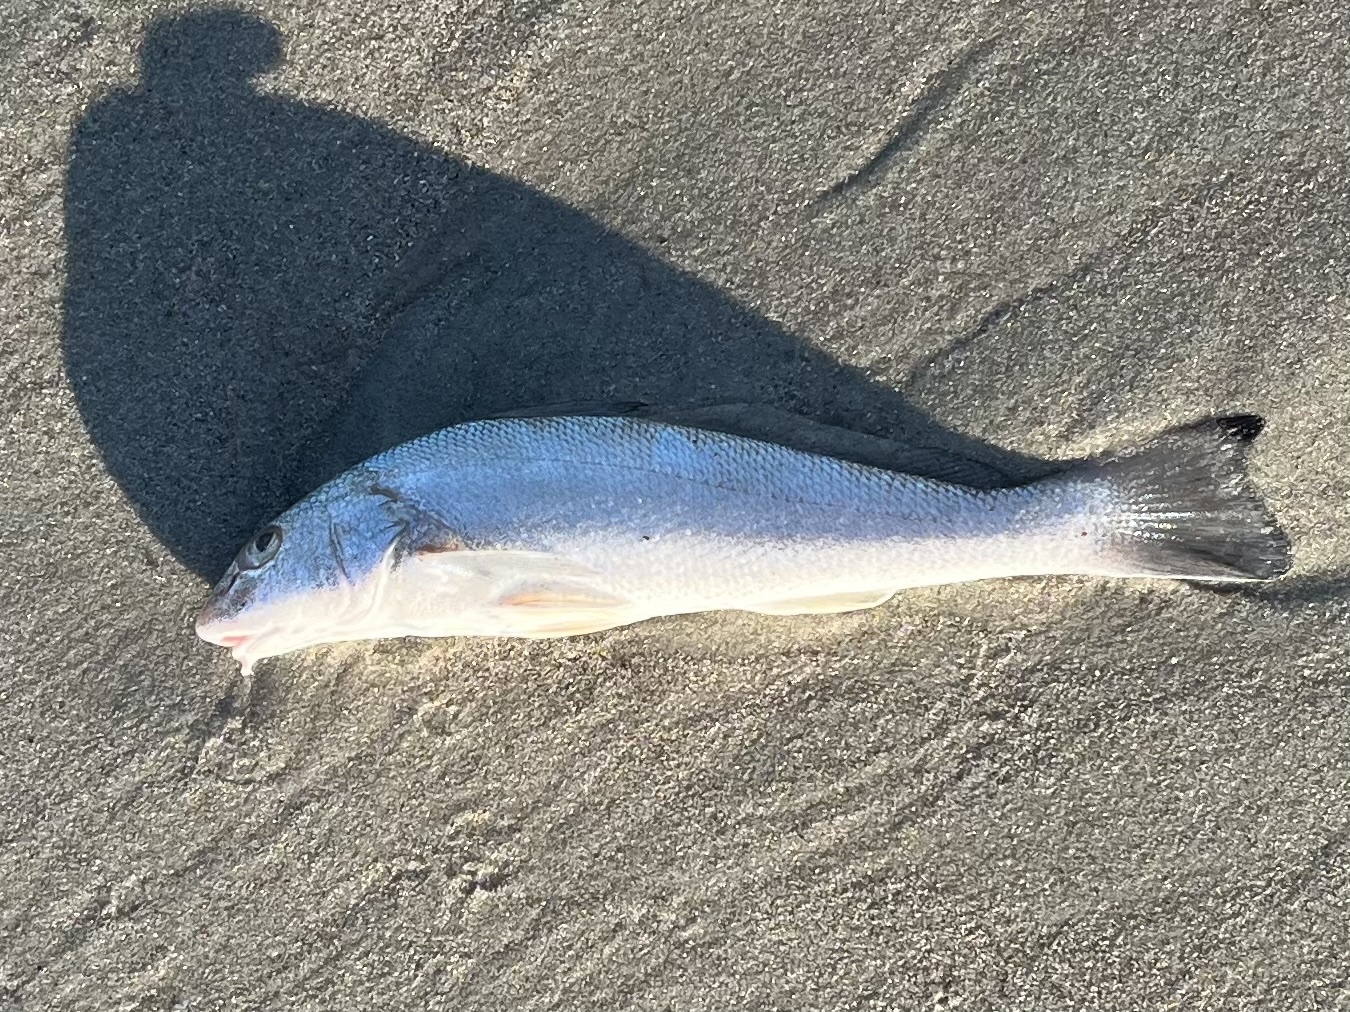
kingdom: Animalia
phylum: Chordata
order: Perciformes
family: Sciaenidae
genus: Menticirrhus
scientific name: Menticirrhus littoralis
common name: Gulf kingcroaker
